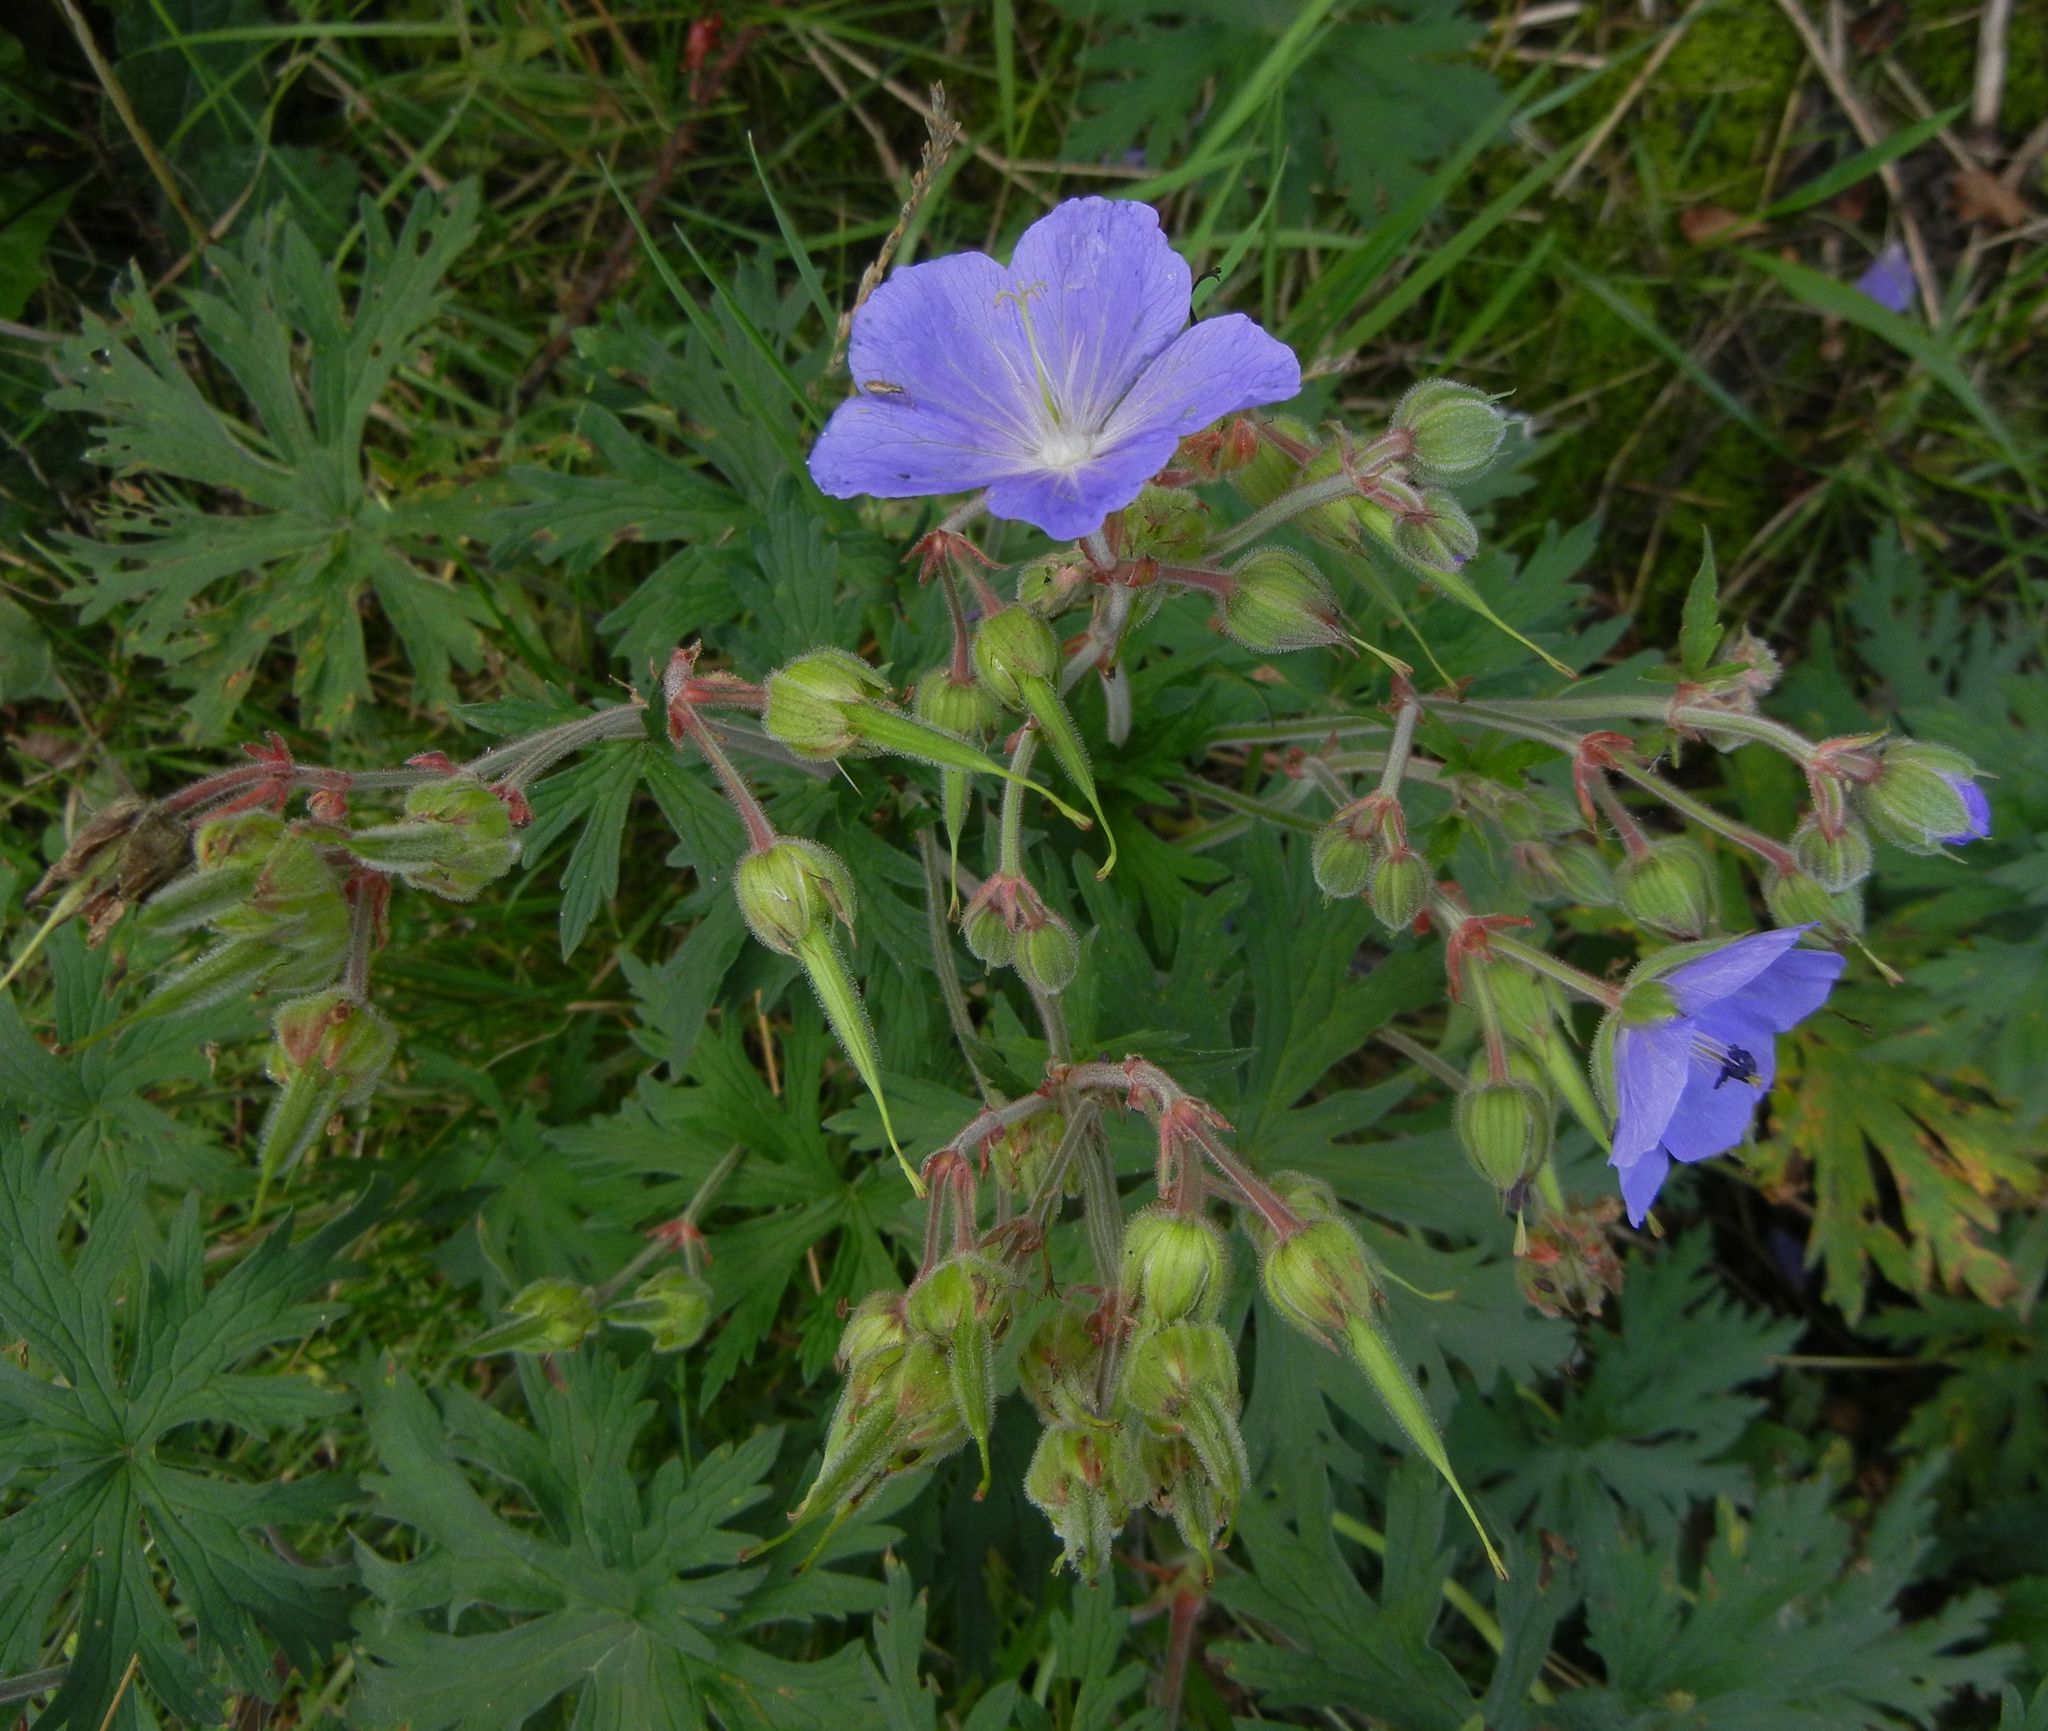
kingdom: Plantae
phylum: Tracheophyta
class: Magnoliopsida
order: Geraniales
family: Geraniaceae
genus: Geranium
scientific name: Geranium pratense
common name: Meadow crane's-bill
